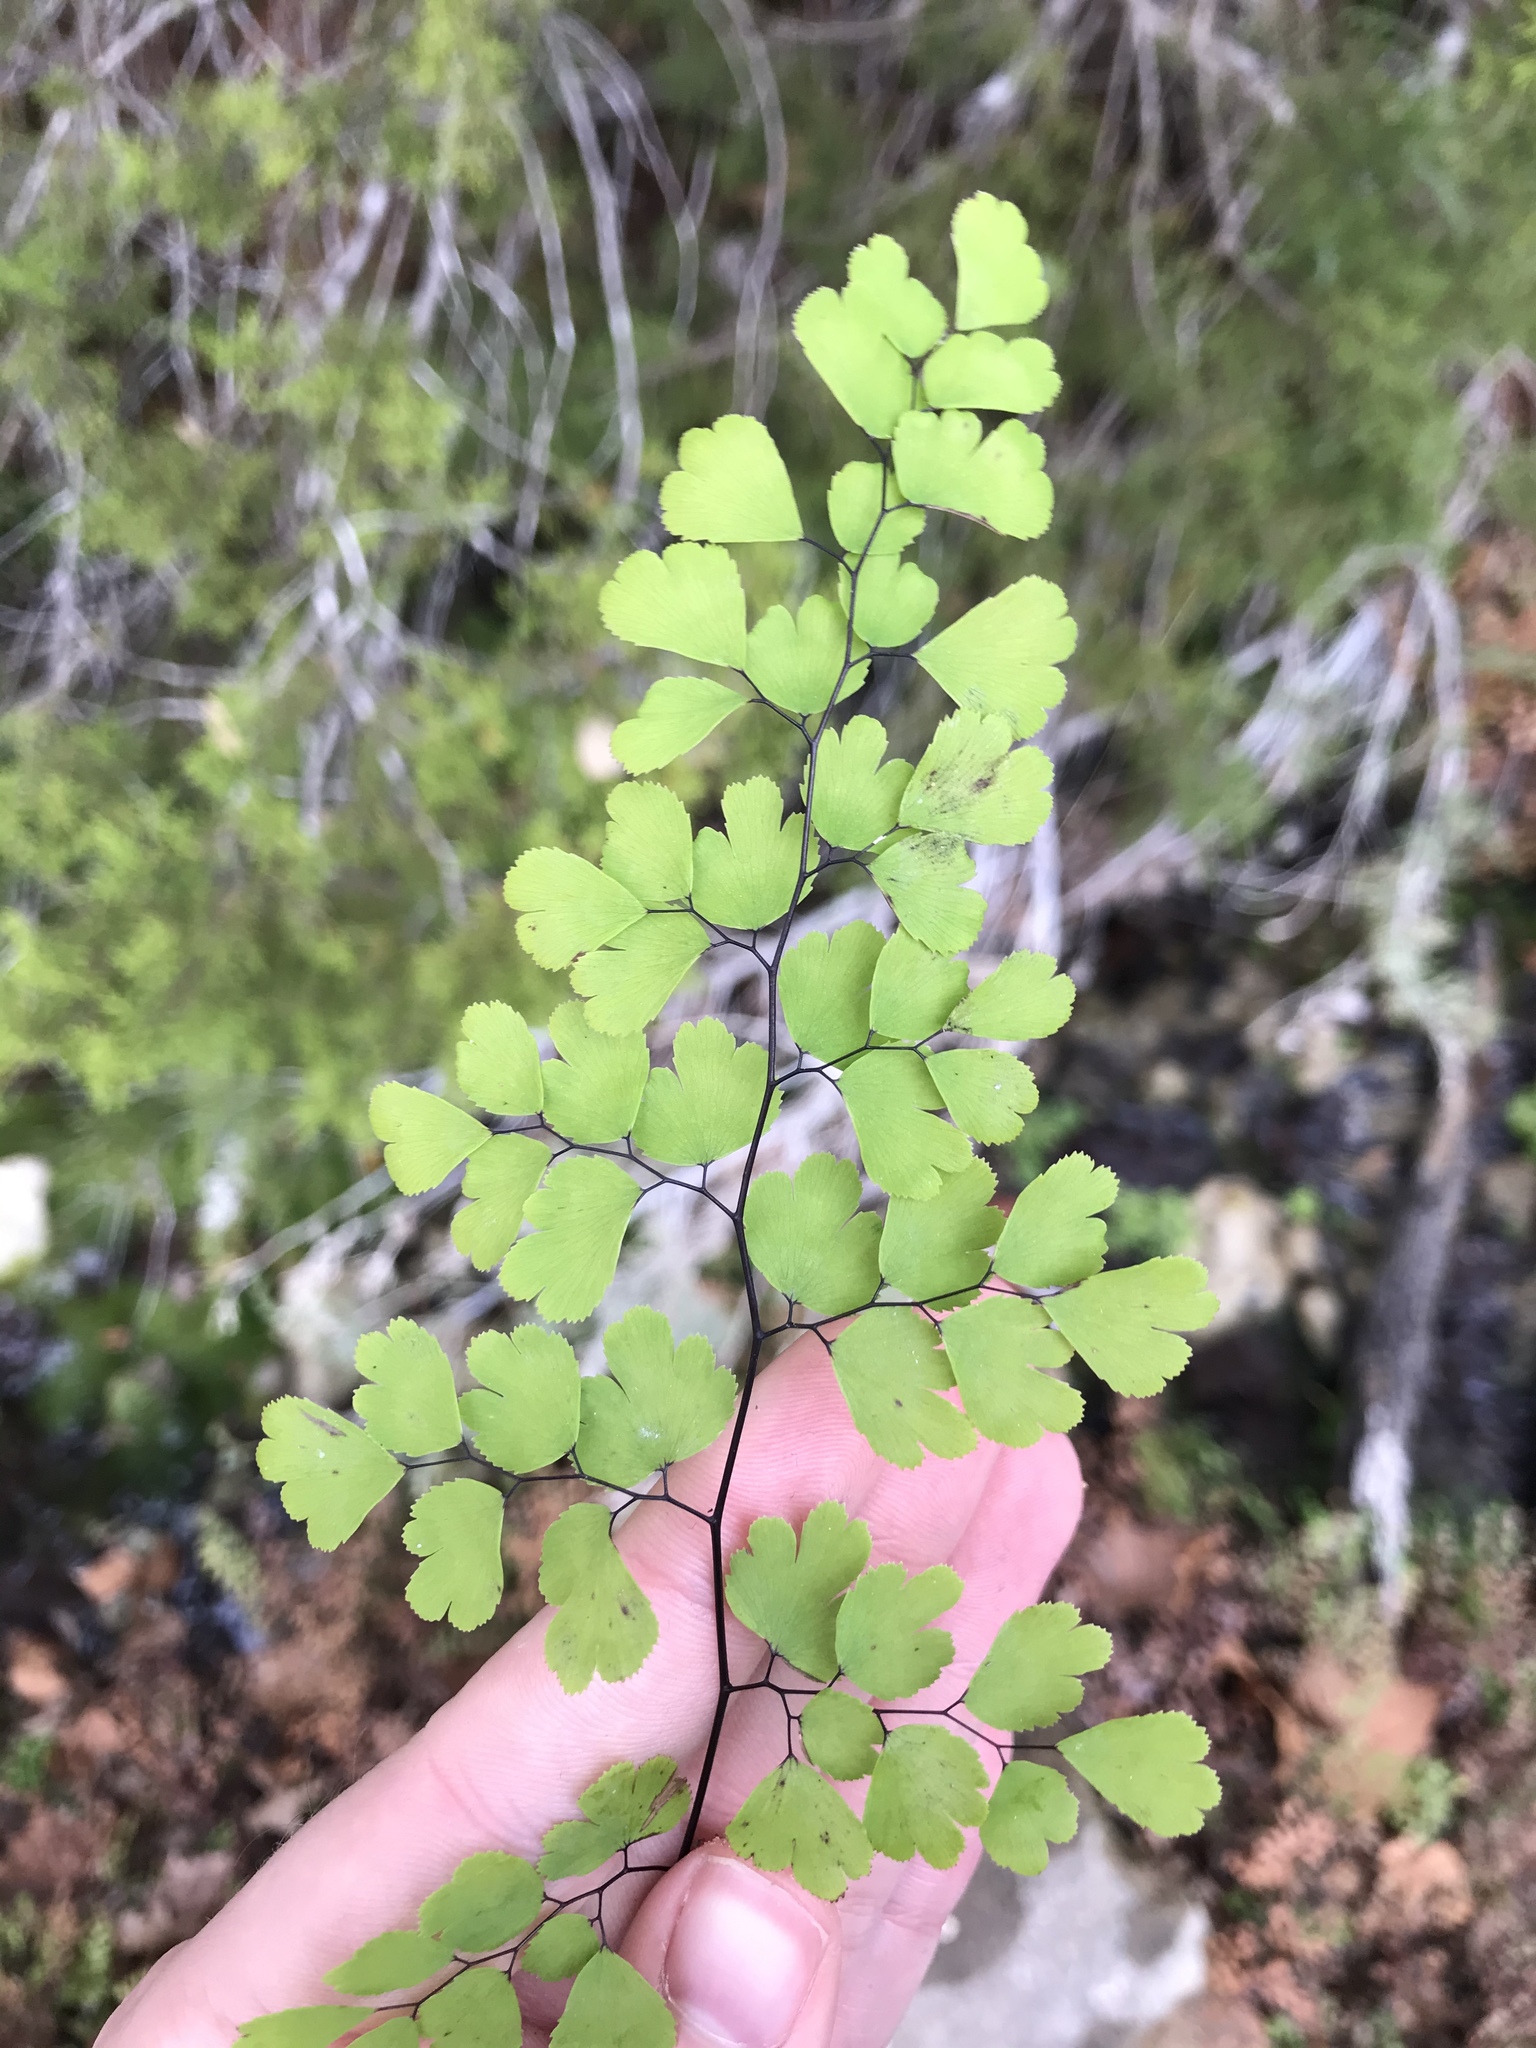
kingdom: Plantae
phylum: Tracheophyta
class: Polypodiopsida
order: Polypodiales
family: Pteridaceae
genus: Adiantum
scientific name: Adiantum capillus-veneris
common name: Maidenhair fern
